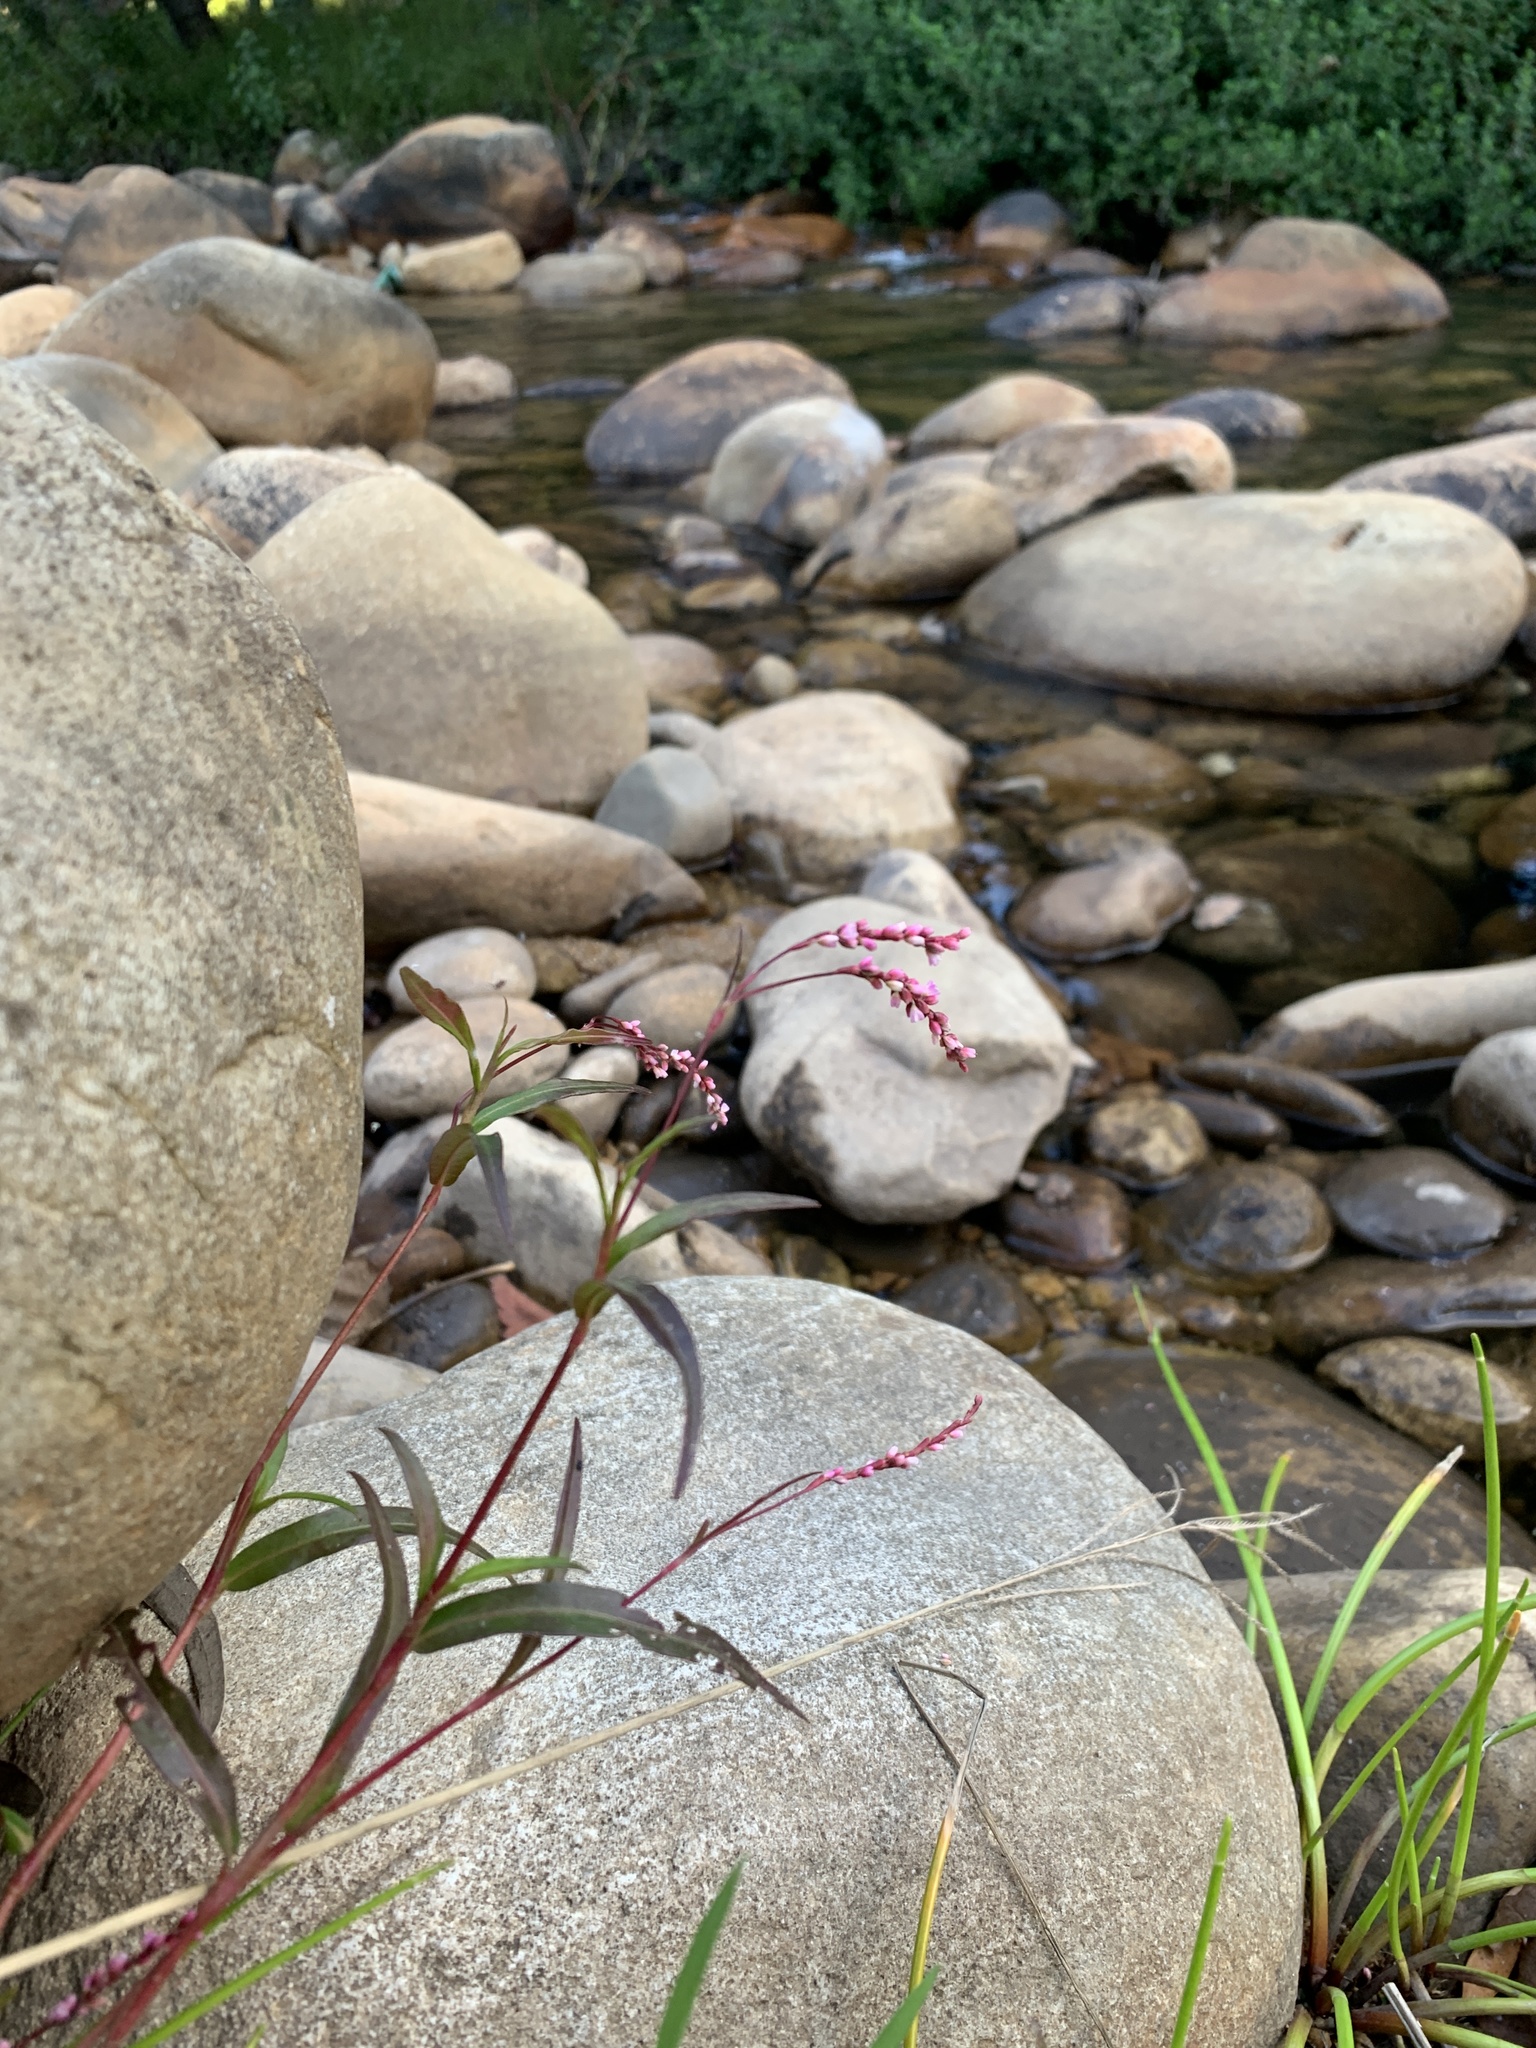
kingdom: Plantae
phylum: Tracheophyta
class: Magnoliopsida
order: Caryophyllales
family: Polygonaceae
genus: Persicaria
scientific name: Persicaria decipiens
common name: Willow-weed
